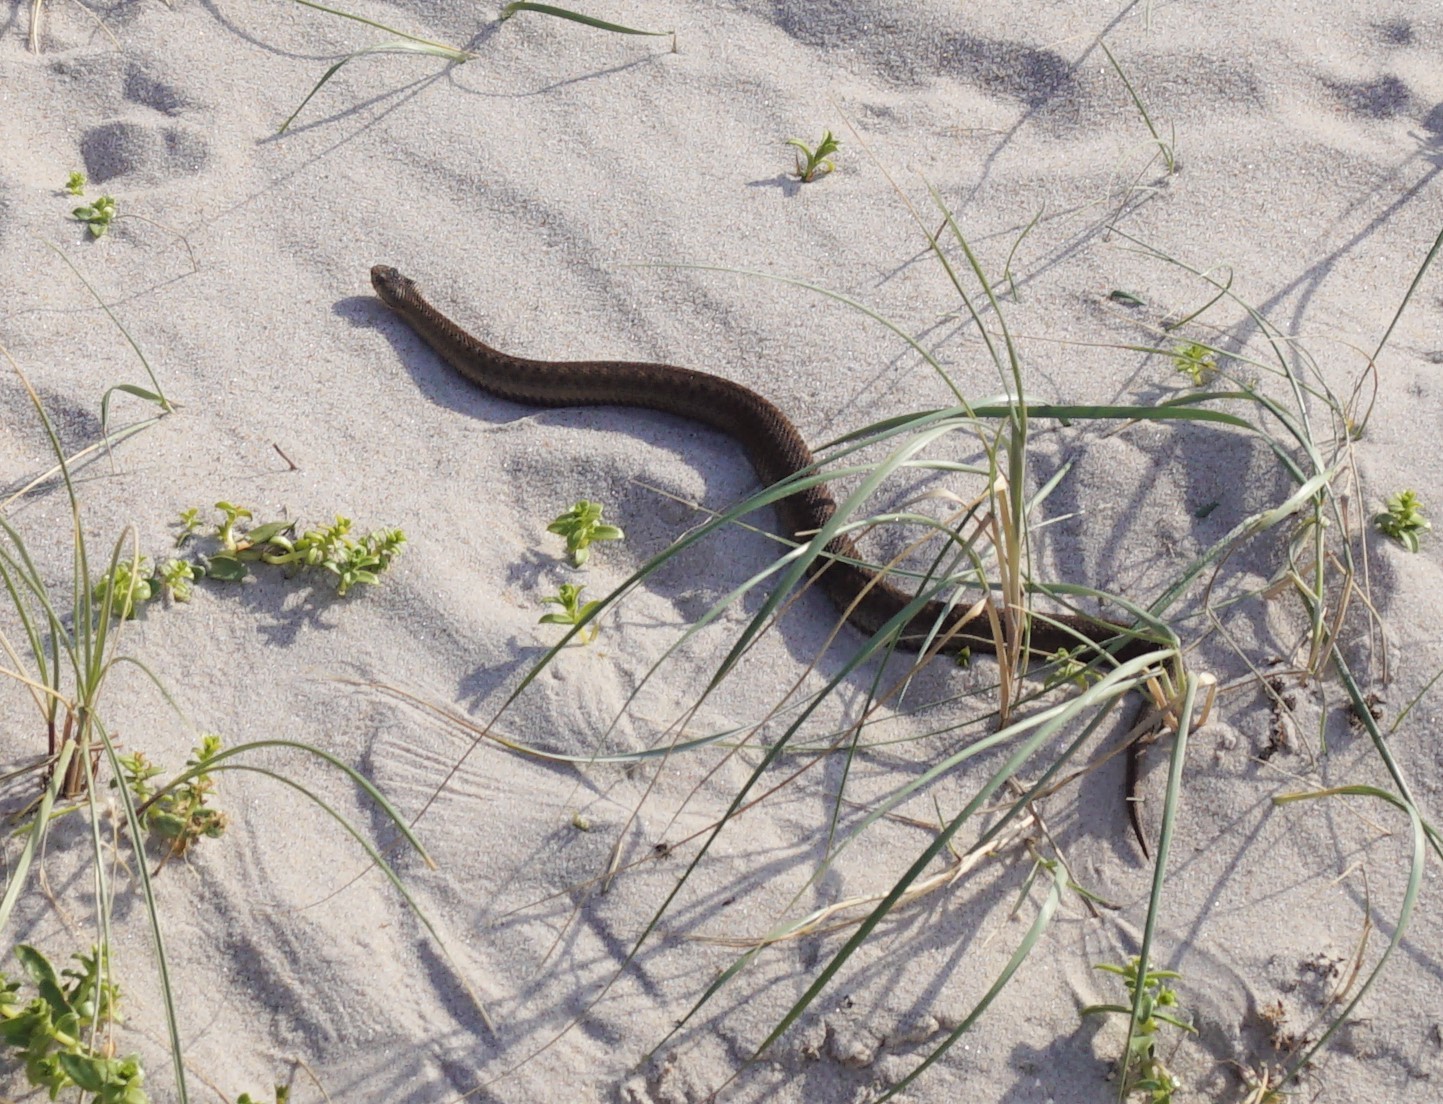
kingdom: Animalia
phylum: Chordata
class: Squamata
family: Viperidae
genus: Vipera
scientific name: Vipera berus
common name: Adder
